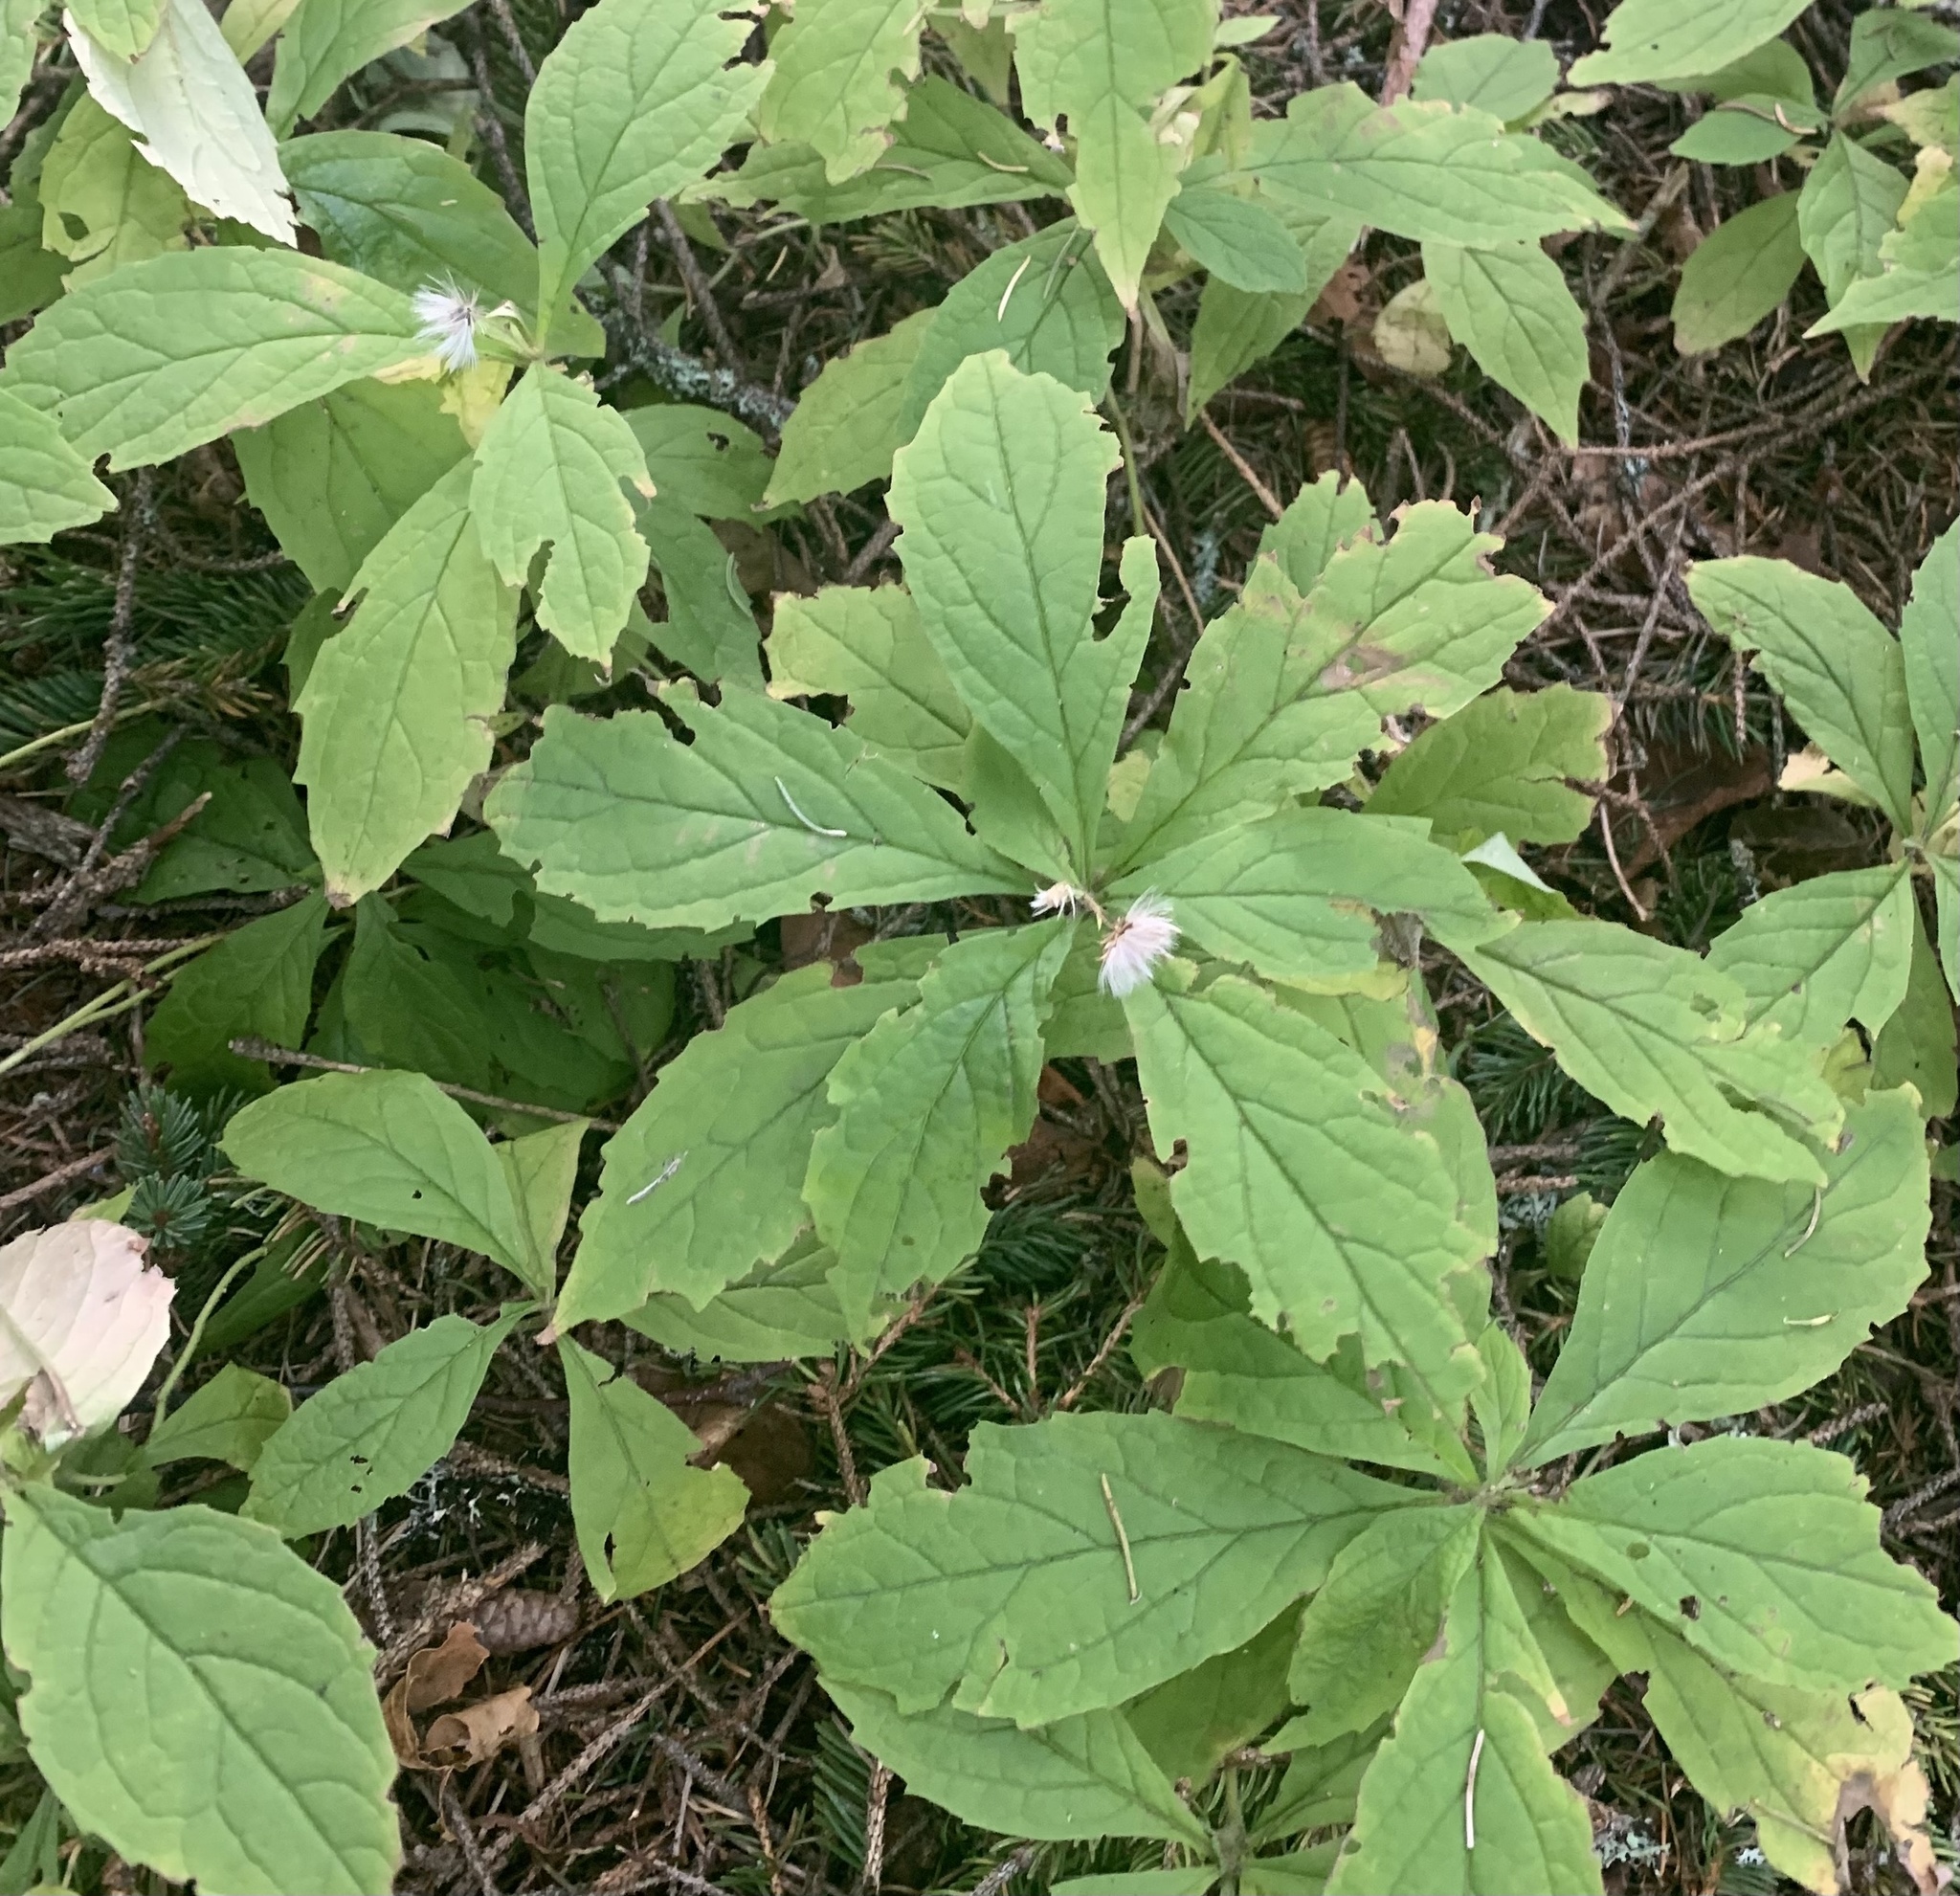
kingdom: Plantae
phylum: Tracheophyta
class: Magnoliopsida
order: Asterales
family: Asteraceae
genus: Oclemena
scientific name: Oclemena acuminata
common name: Mountain aster
